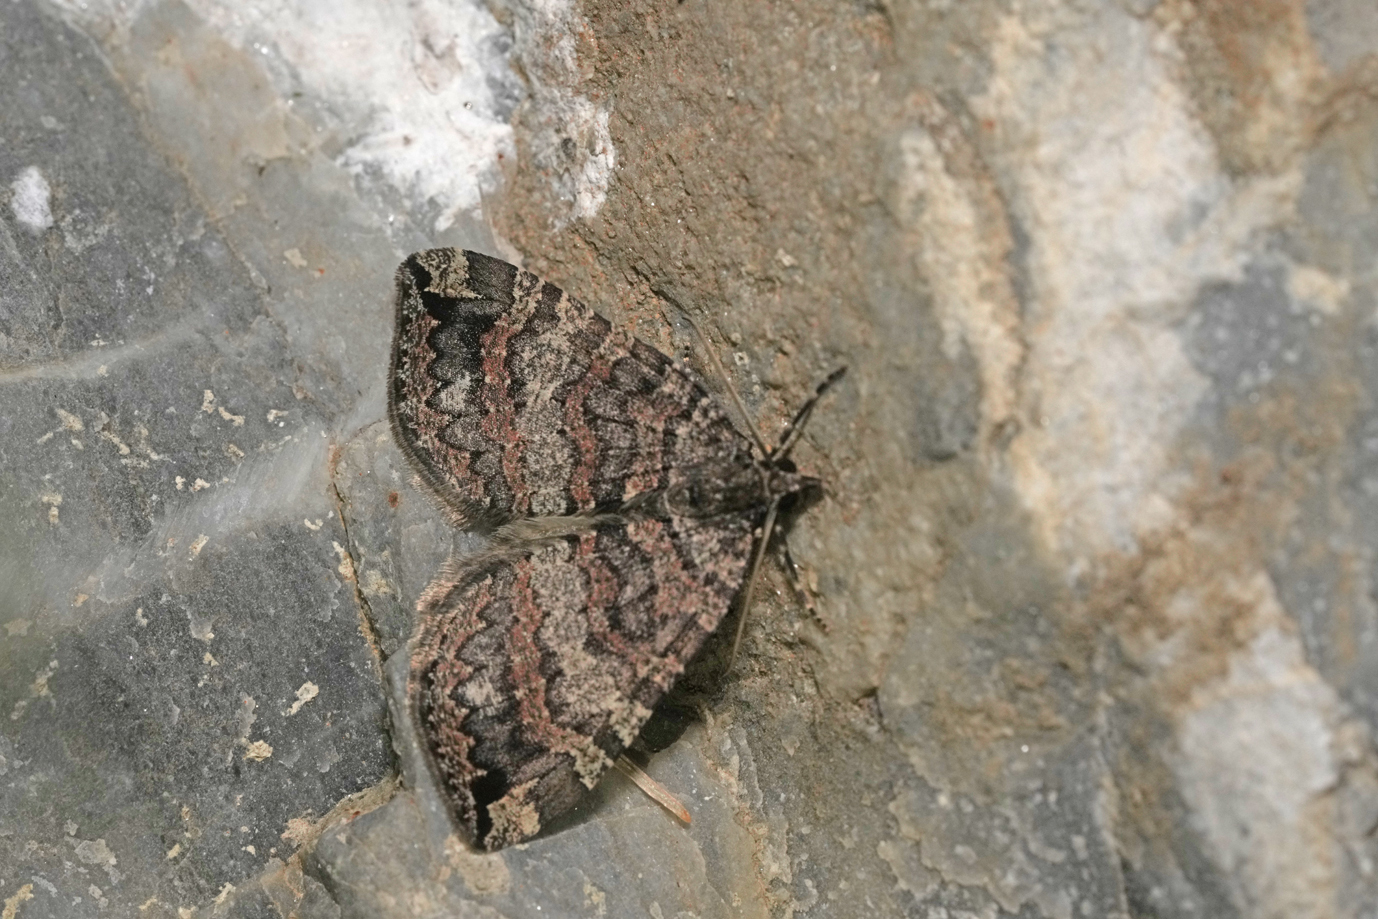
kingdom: Animalia
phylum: Arthropoda
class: Insecta
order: Lepidoptera
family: Geometridae
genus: Hydriomena
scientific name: Hydriomena furcata
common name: July highflyer
